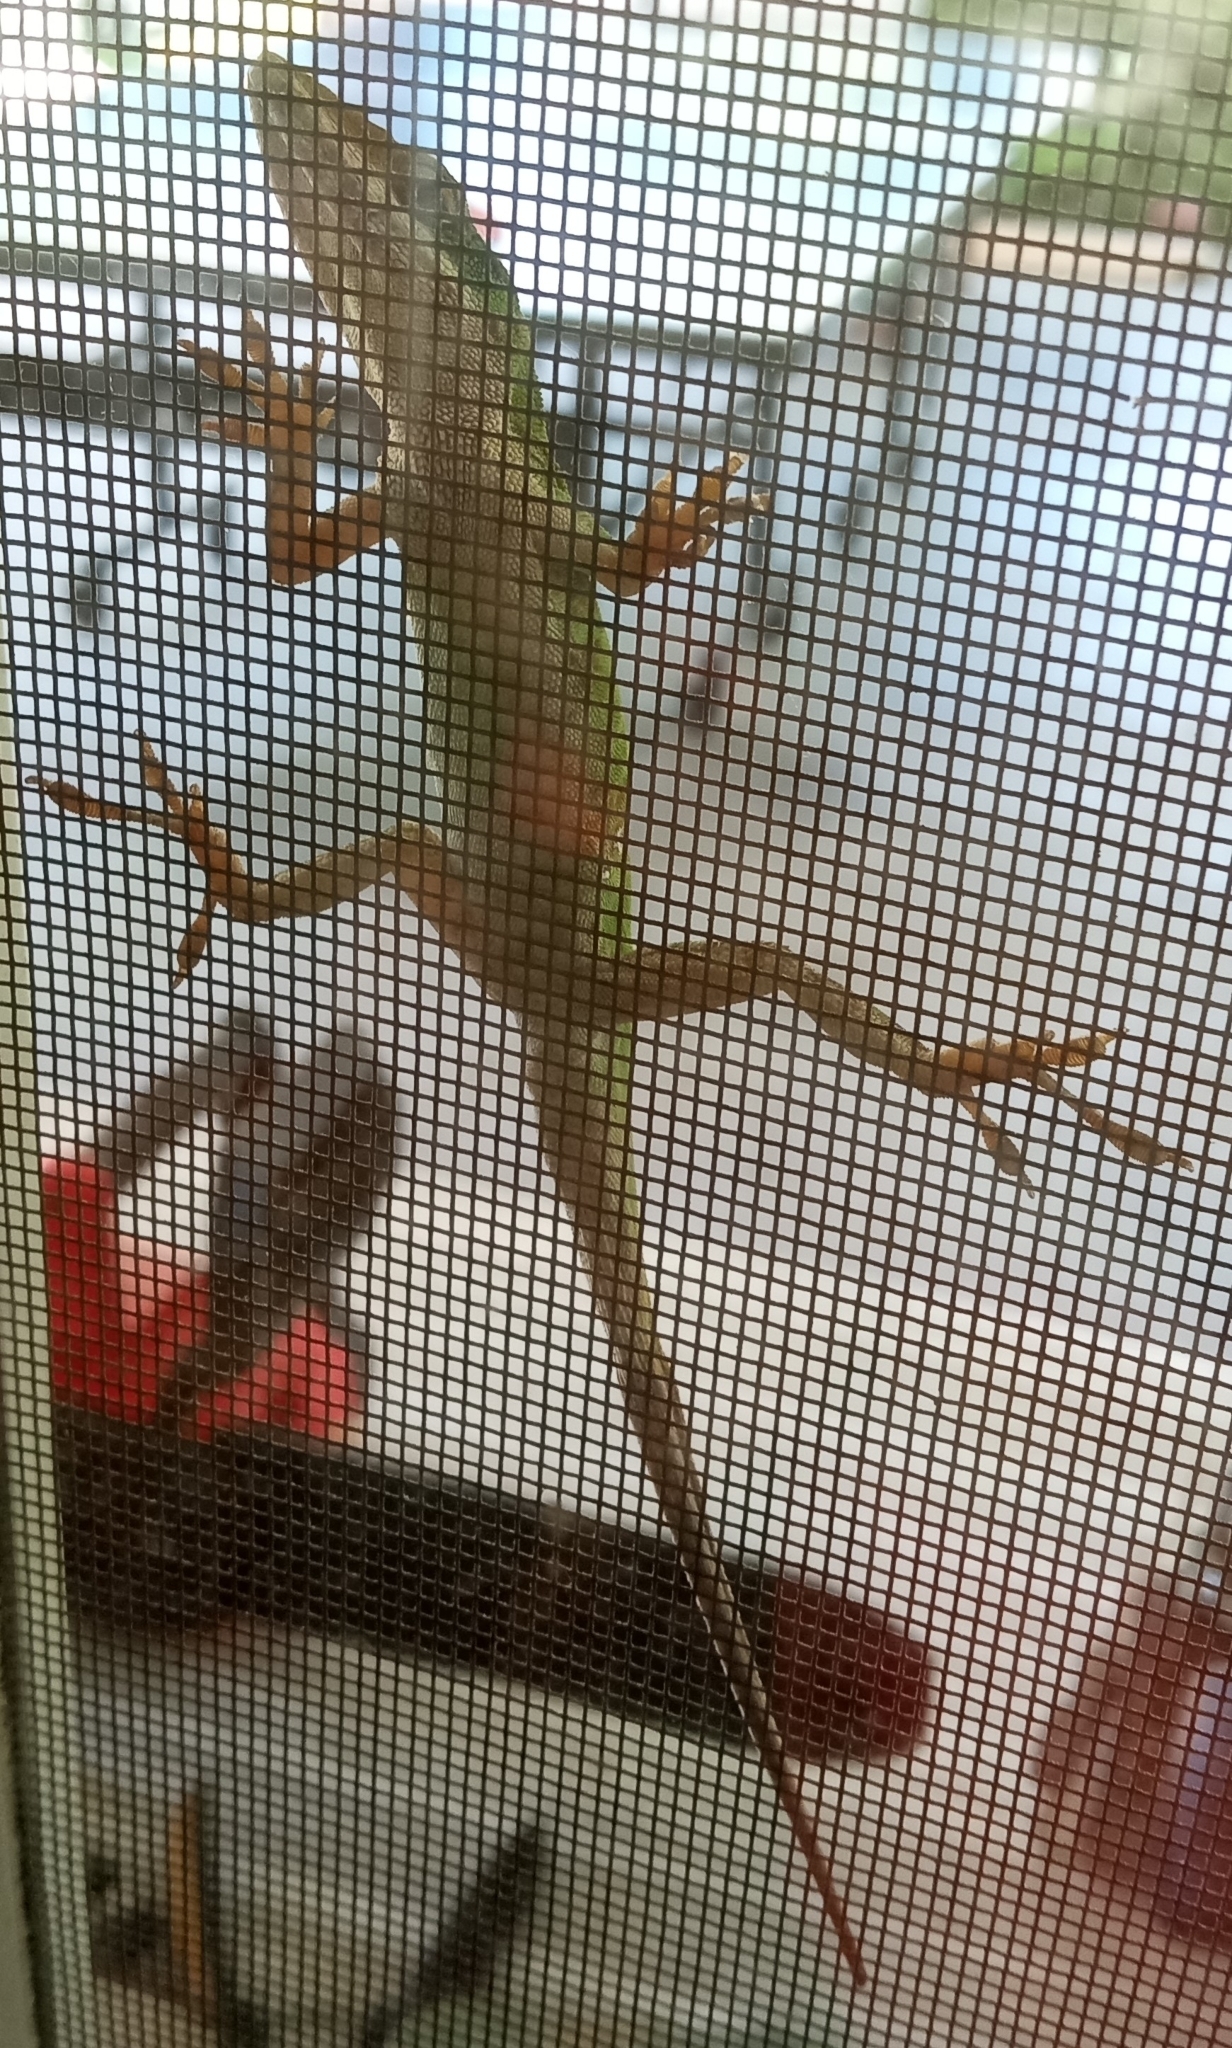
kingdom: Animalia
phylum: Chordata
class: Squamata
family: Dactyloidae
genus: Anolis
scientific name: Anolis carolinensis
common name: Green anole
